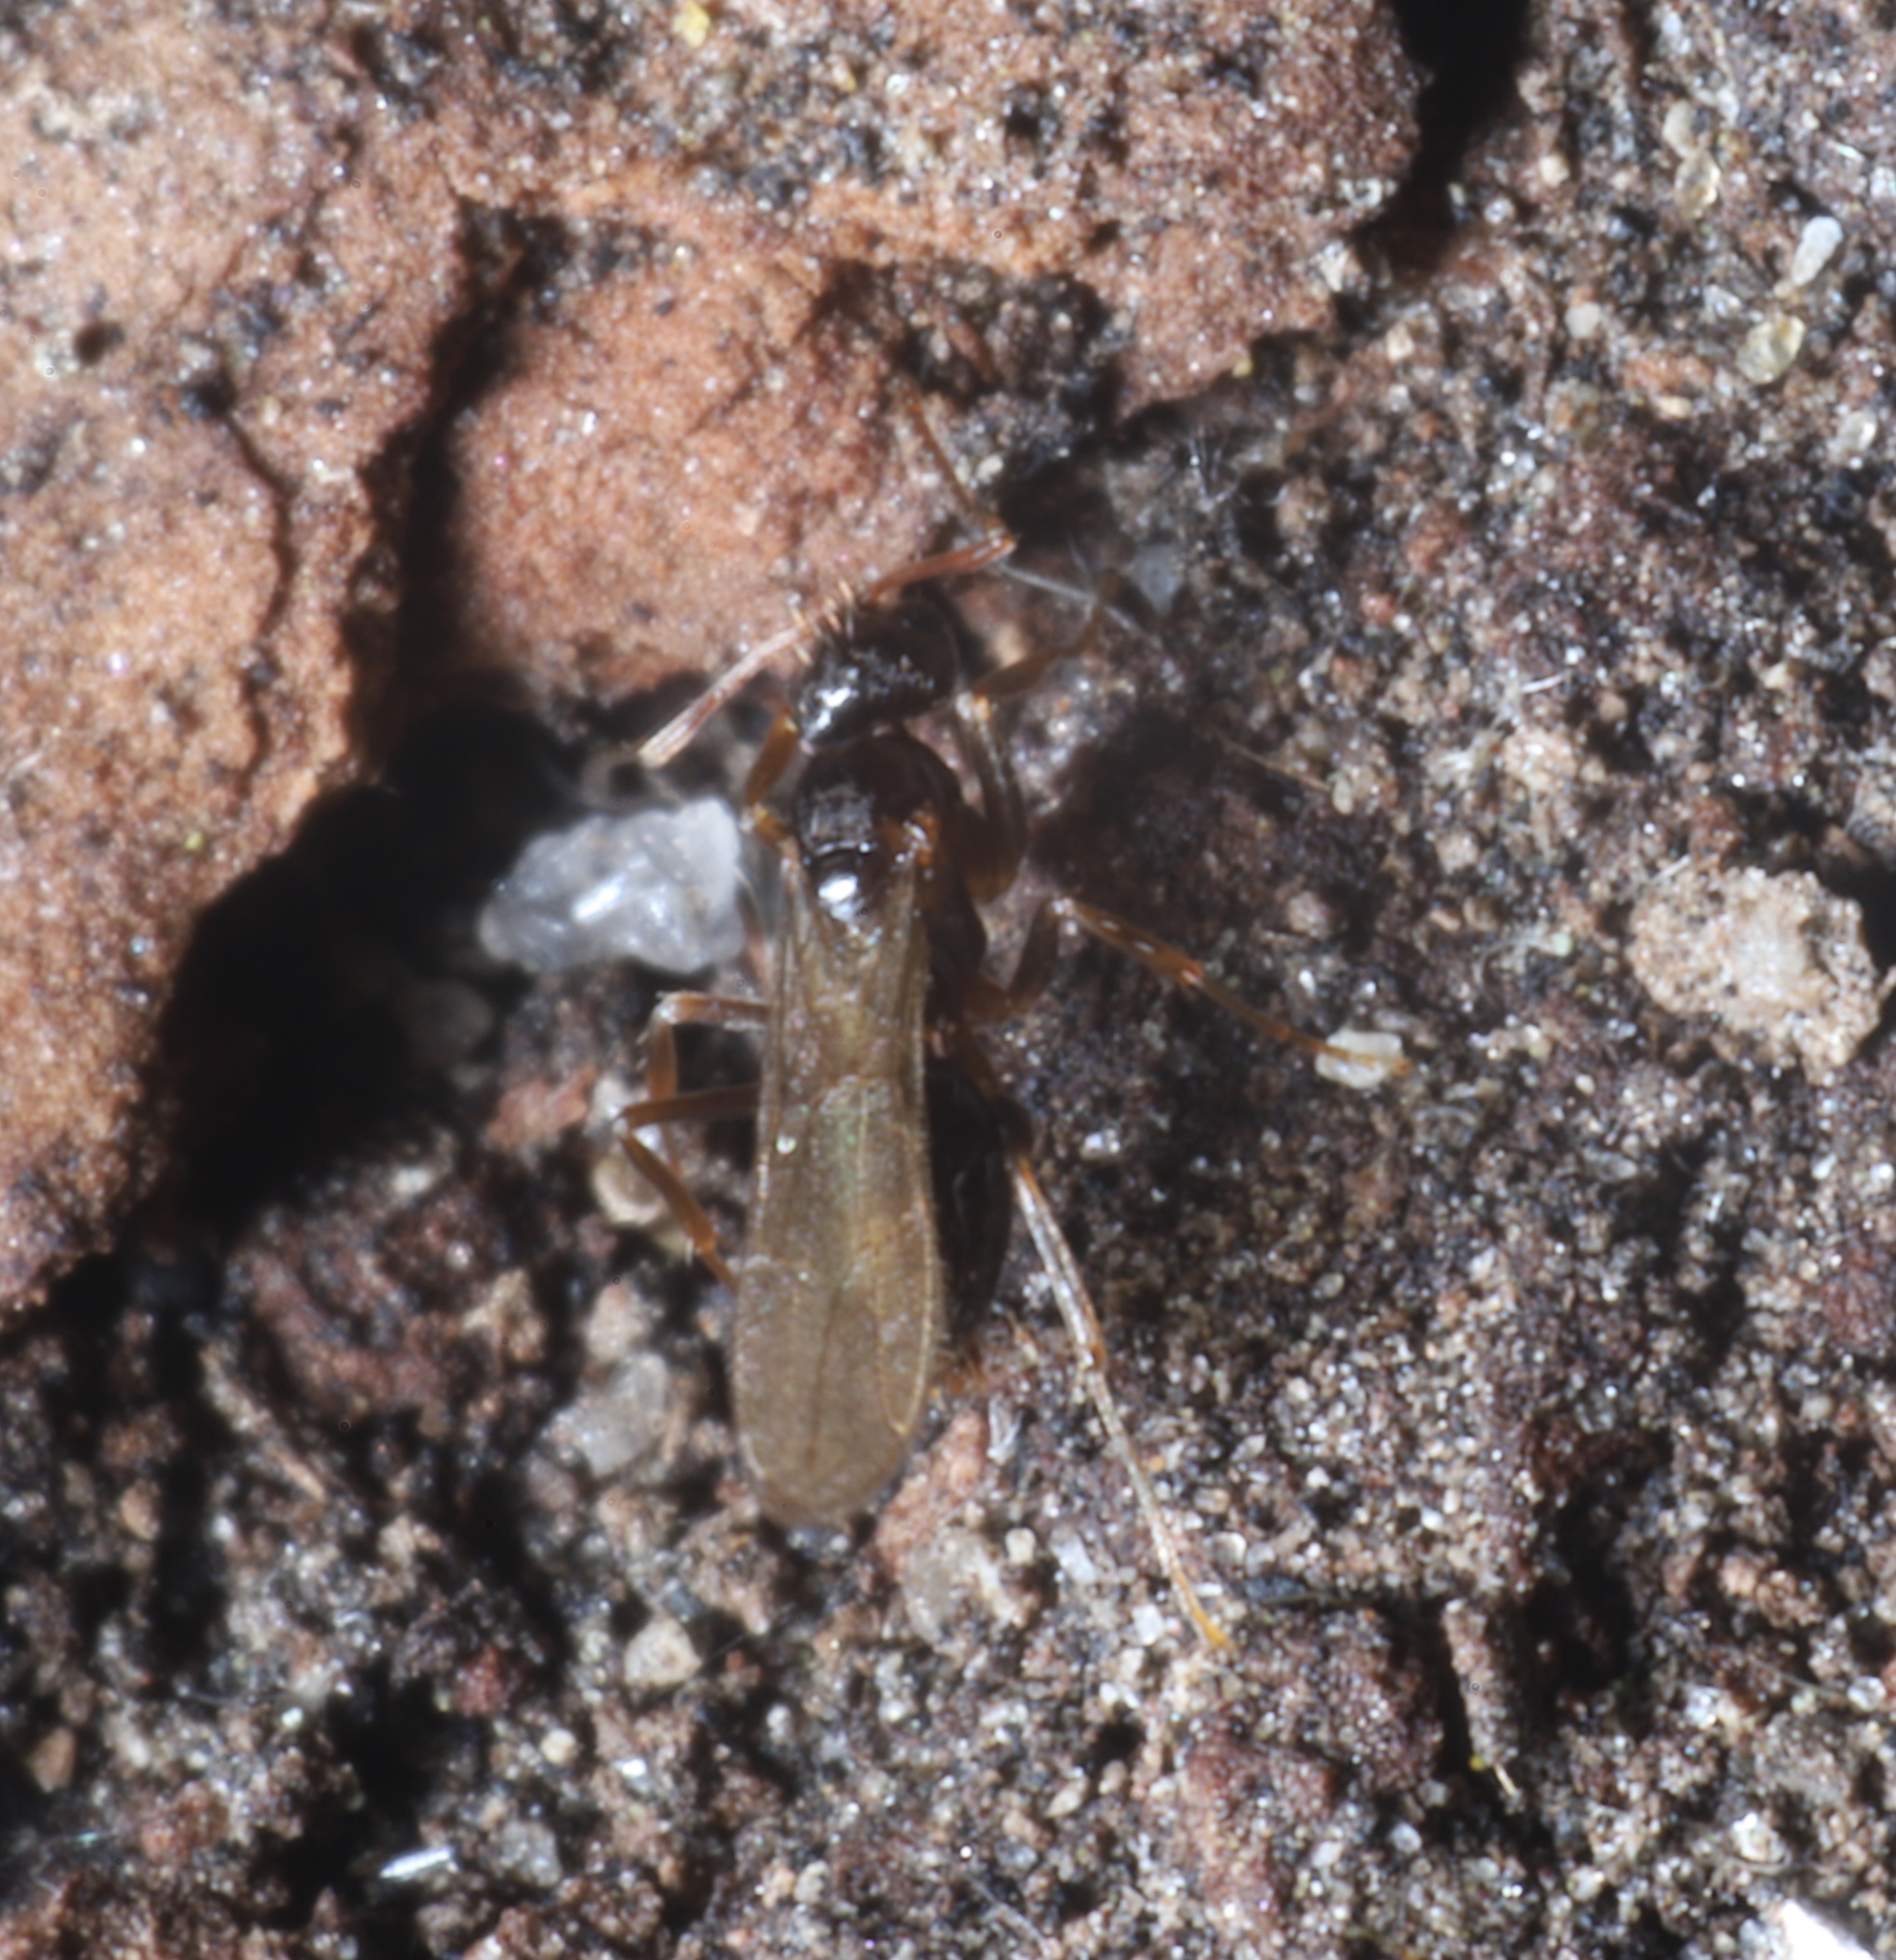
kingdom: Animalia
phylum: Arthropoda
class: Insecta
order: Hymenoptera
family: Formicidae
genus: Paratrechina
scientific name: Paratrechina flavipes
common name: Eastern asian formicine ant
